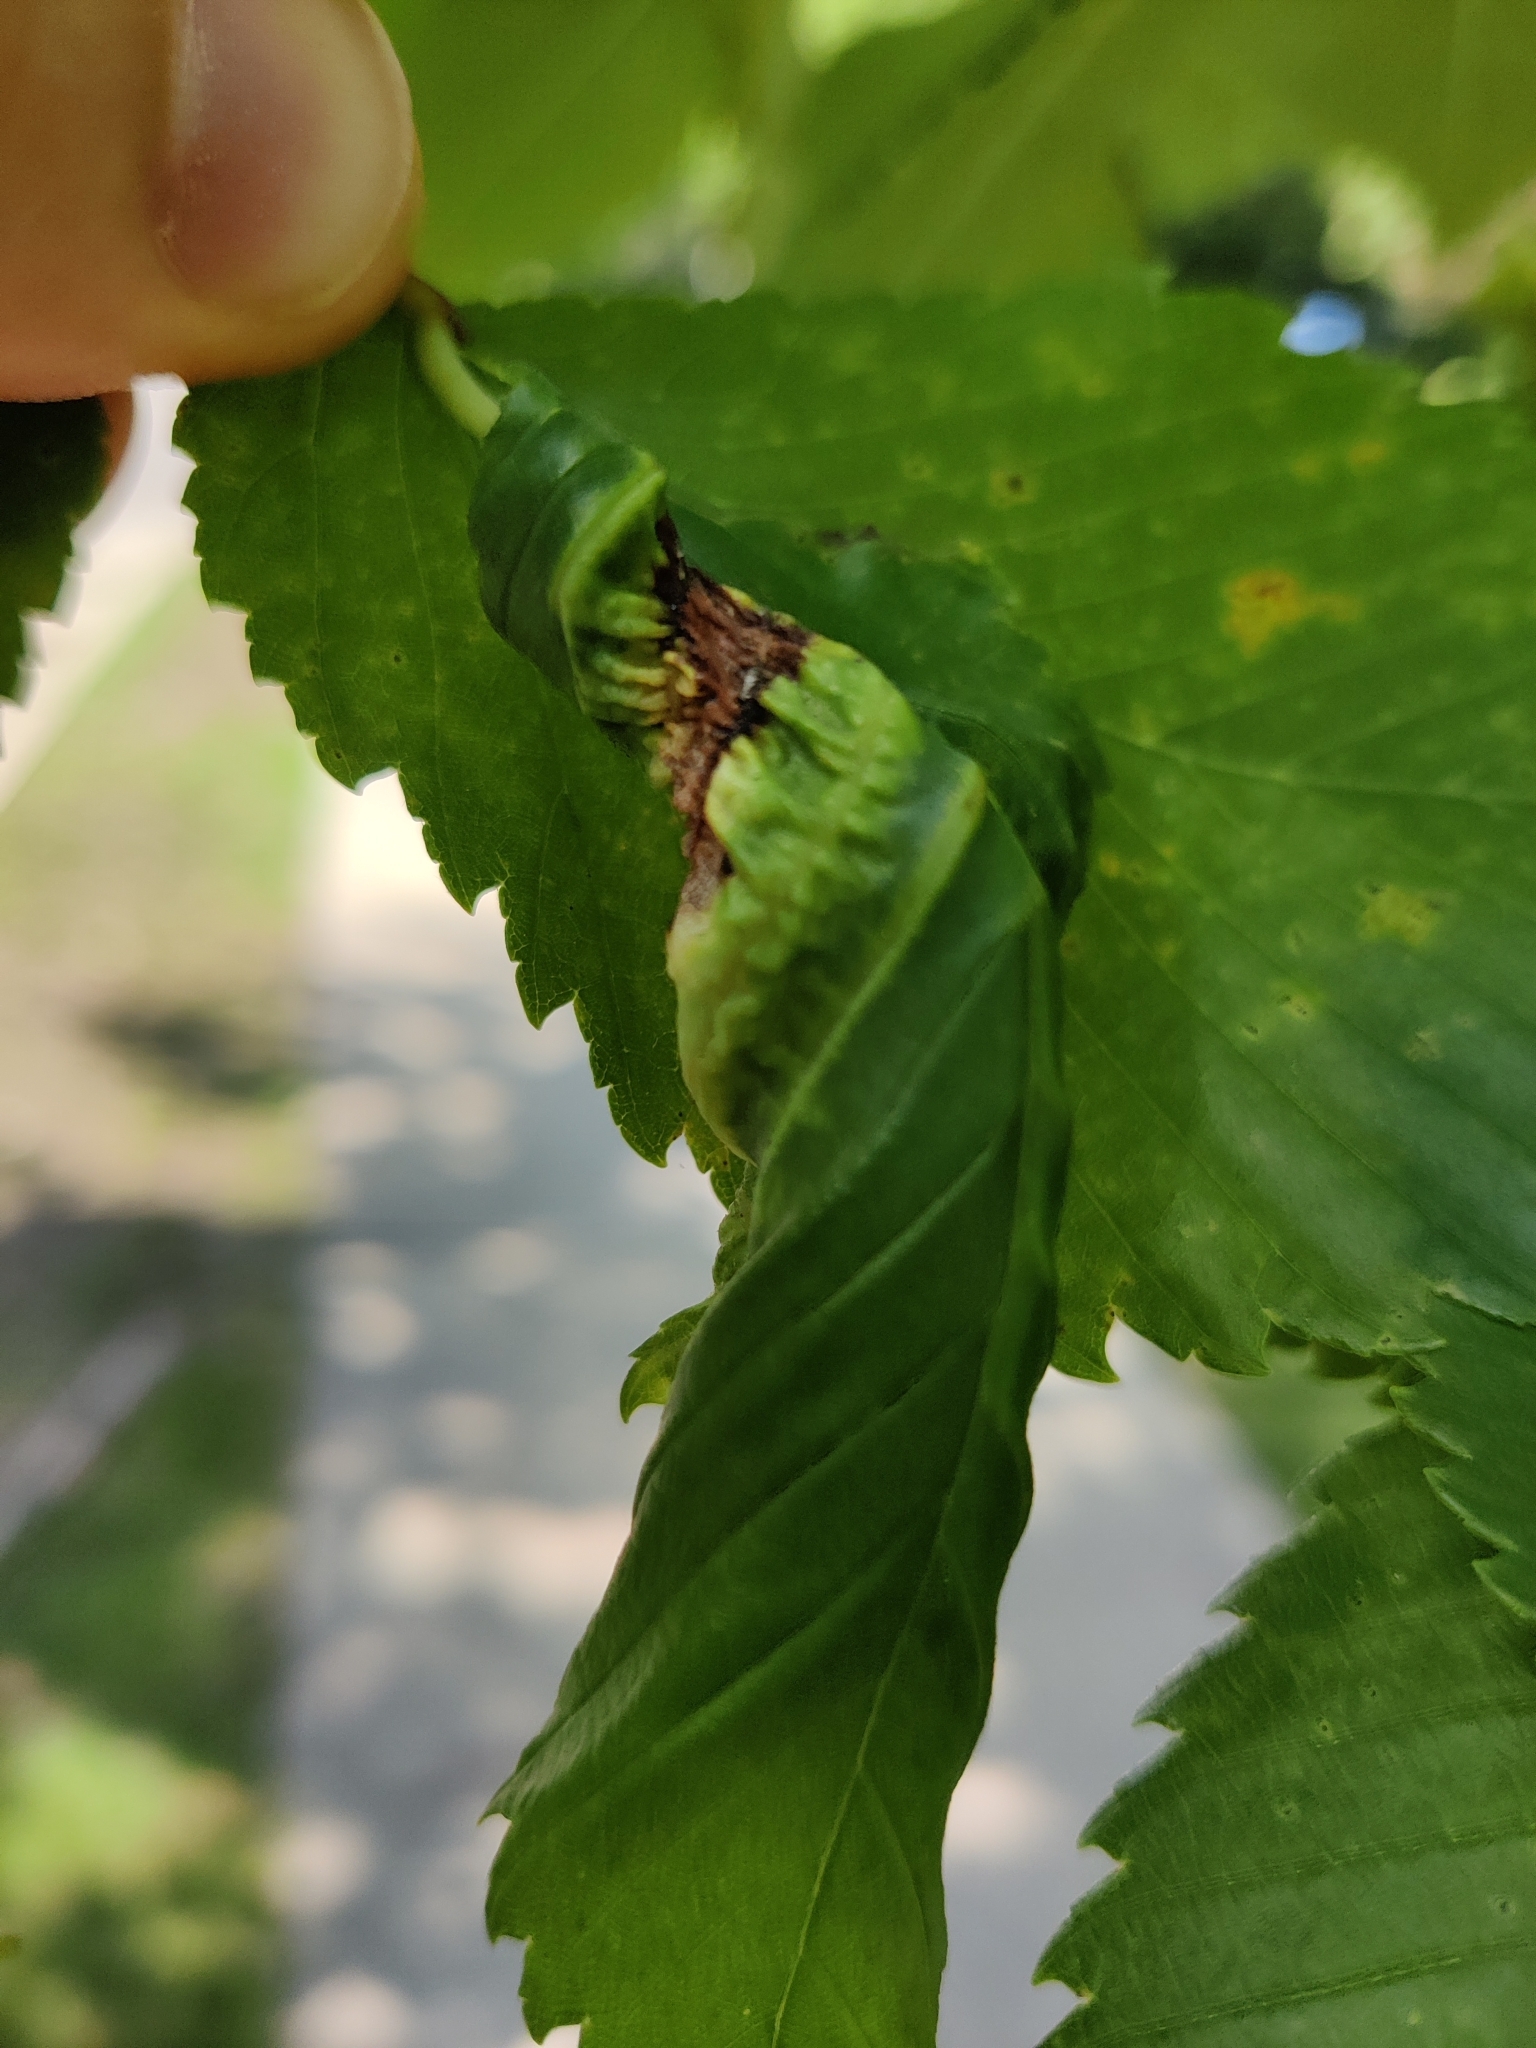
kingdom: Animalia
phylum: Arthropoda
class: Insecta
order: Hemiptera
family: Aphididae
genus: Eriosoma
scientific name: Eriosoma americanum
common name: Woolly elm aphid
